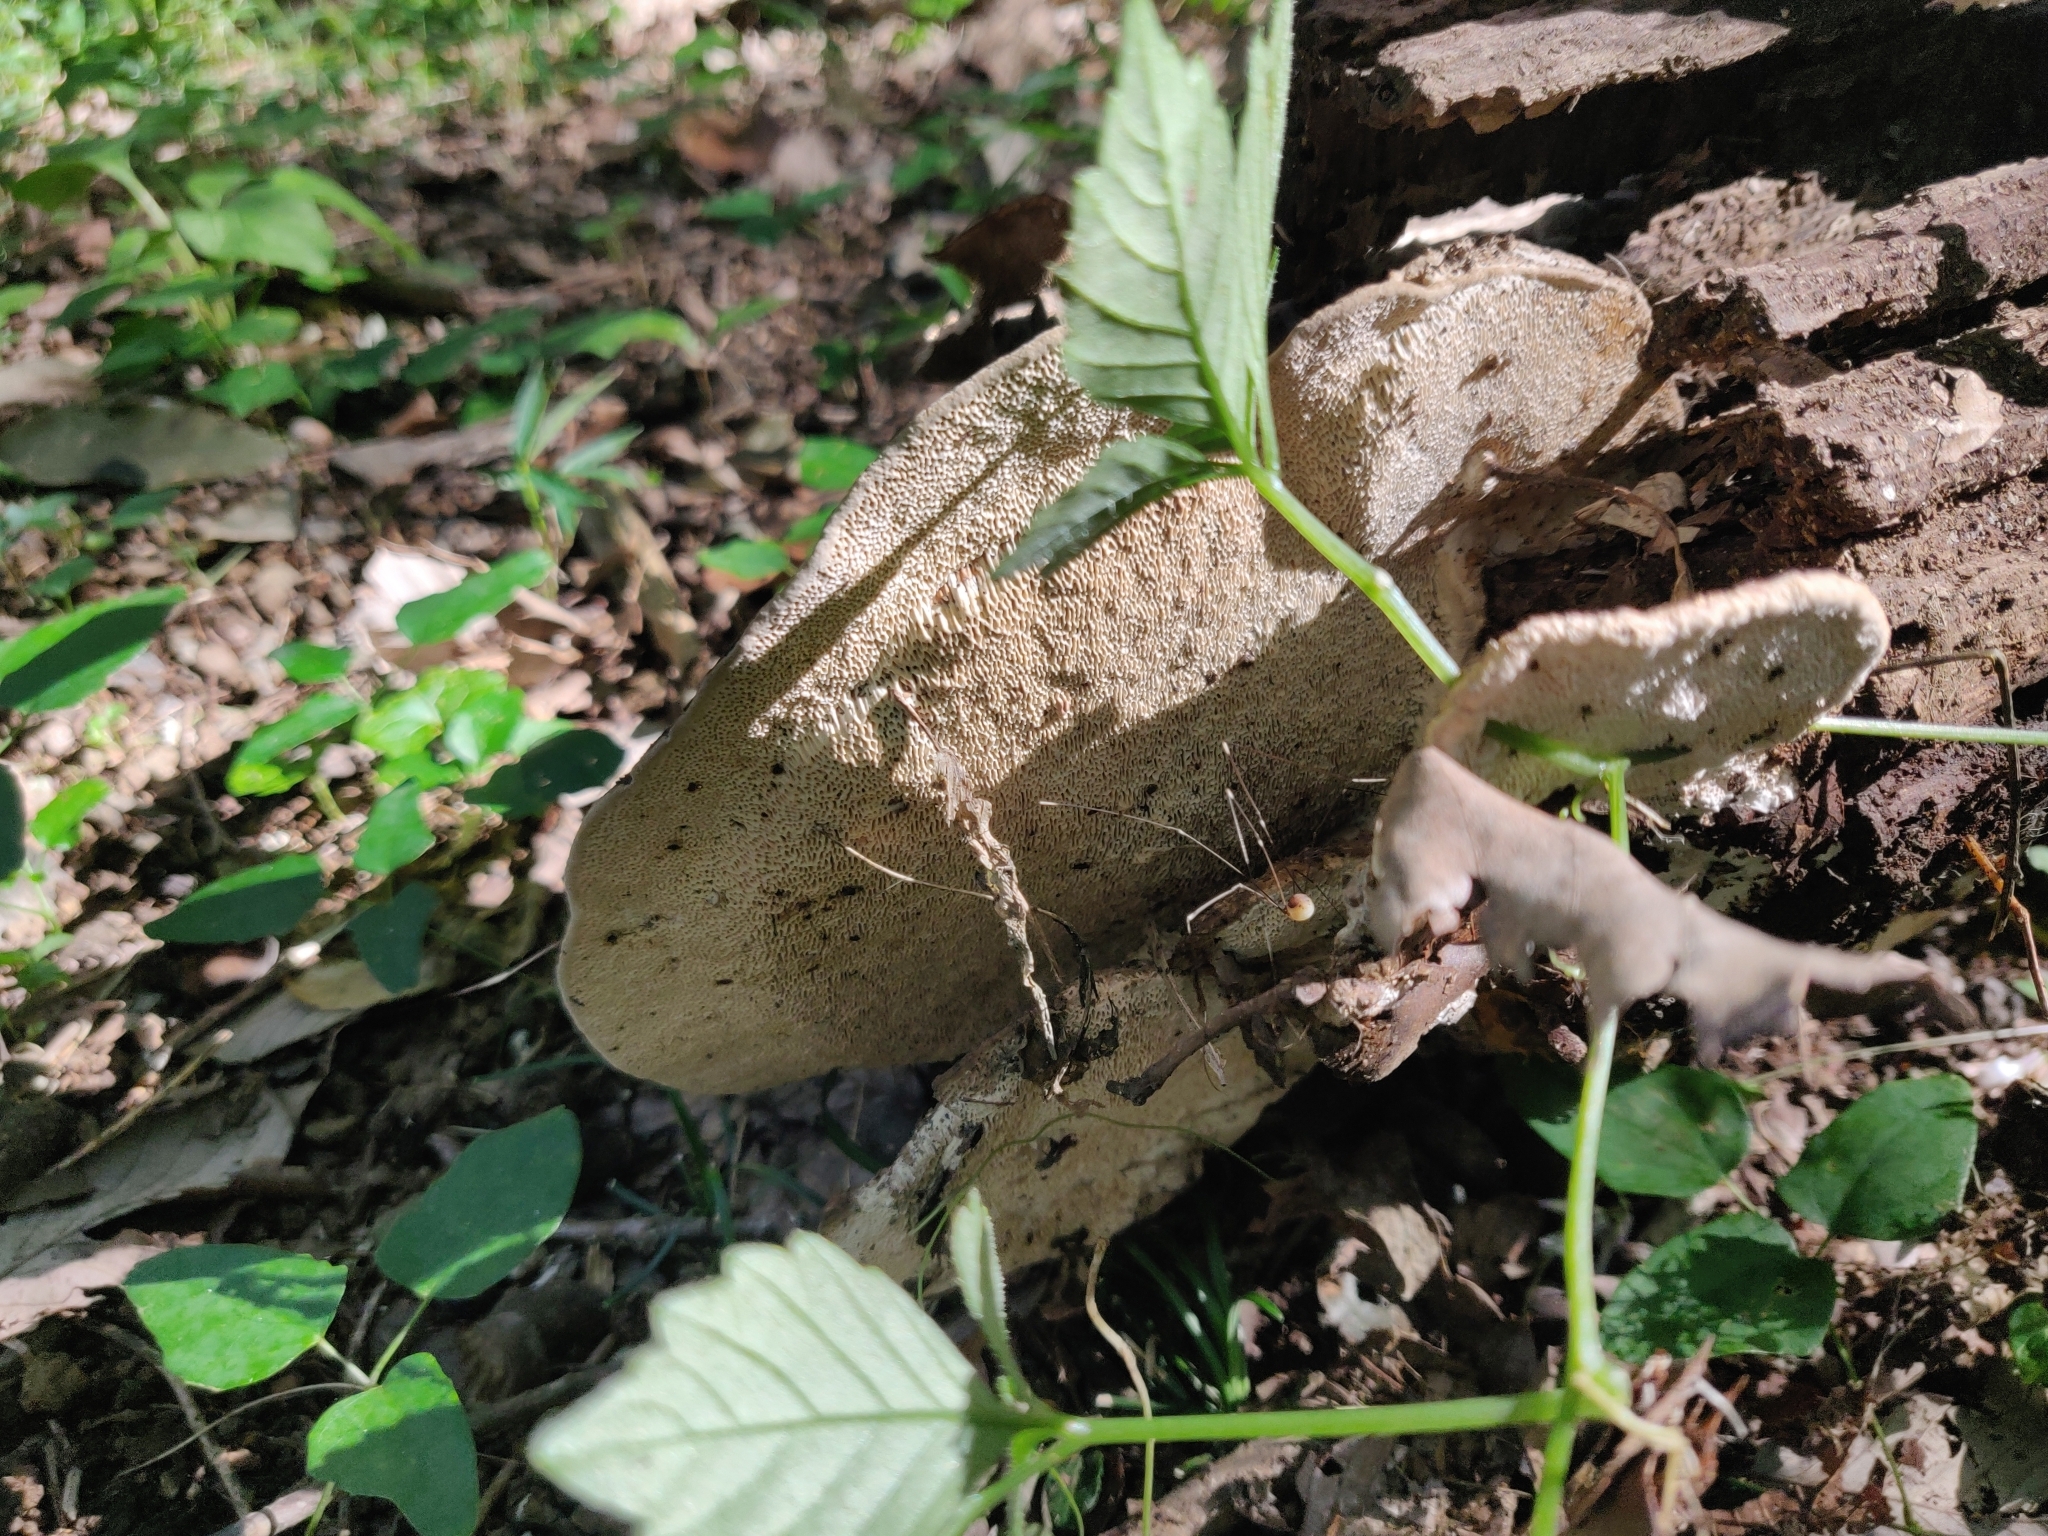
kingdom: Fungi
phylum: Basidiomycota
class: Agaricomycetes
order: Polyporales
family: Fomitopsidaceae
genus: Fomitopsis
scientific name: Fomitopsis
